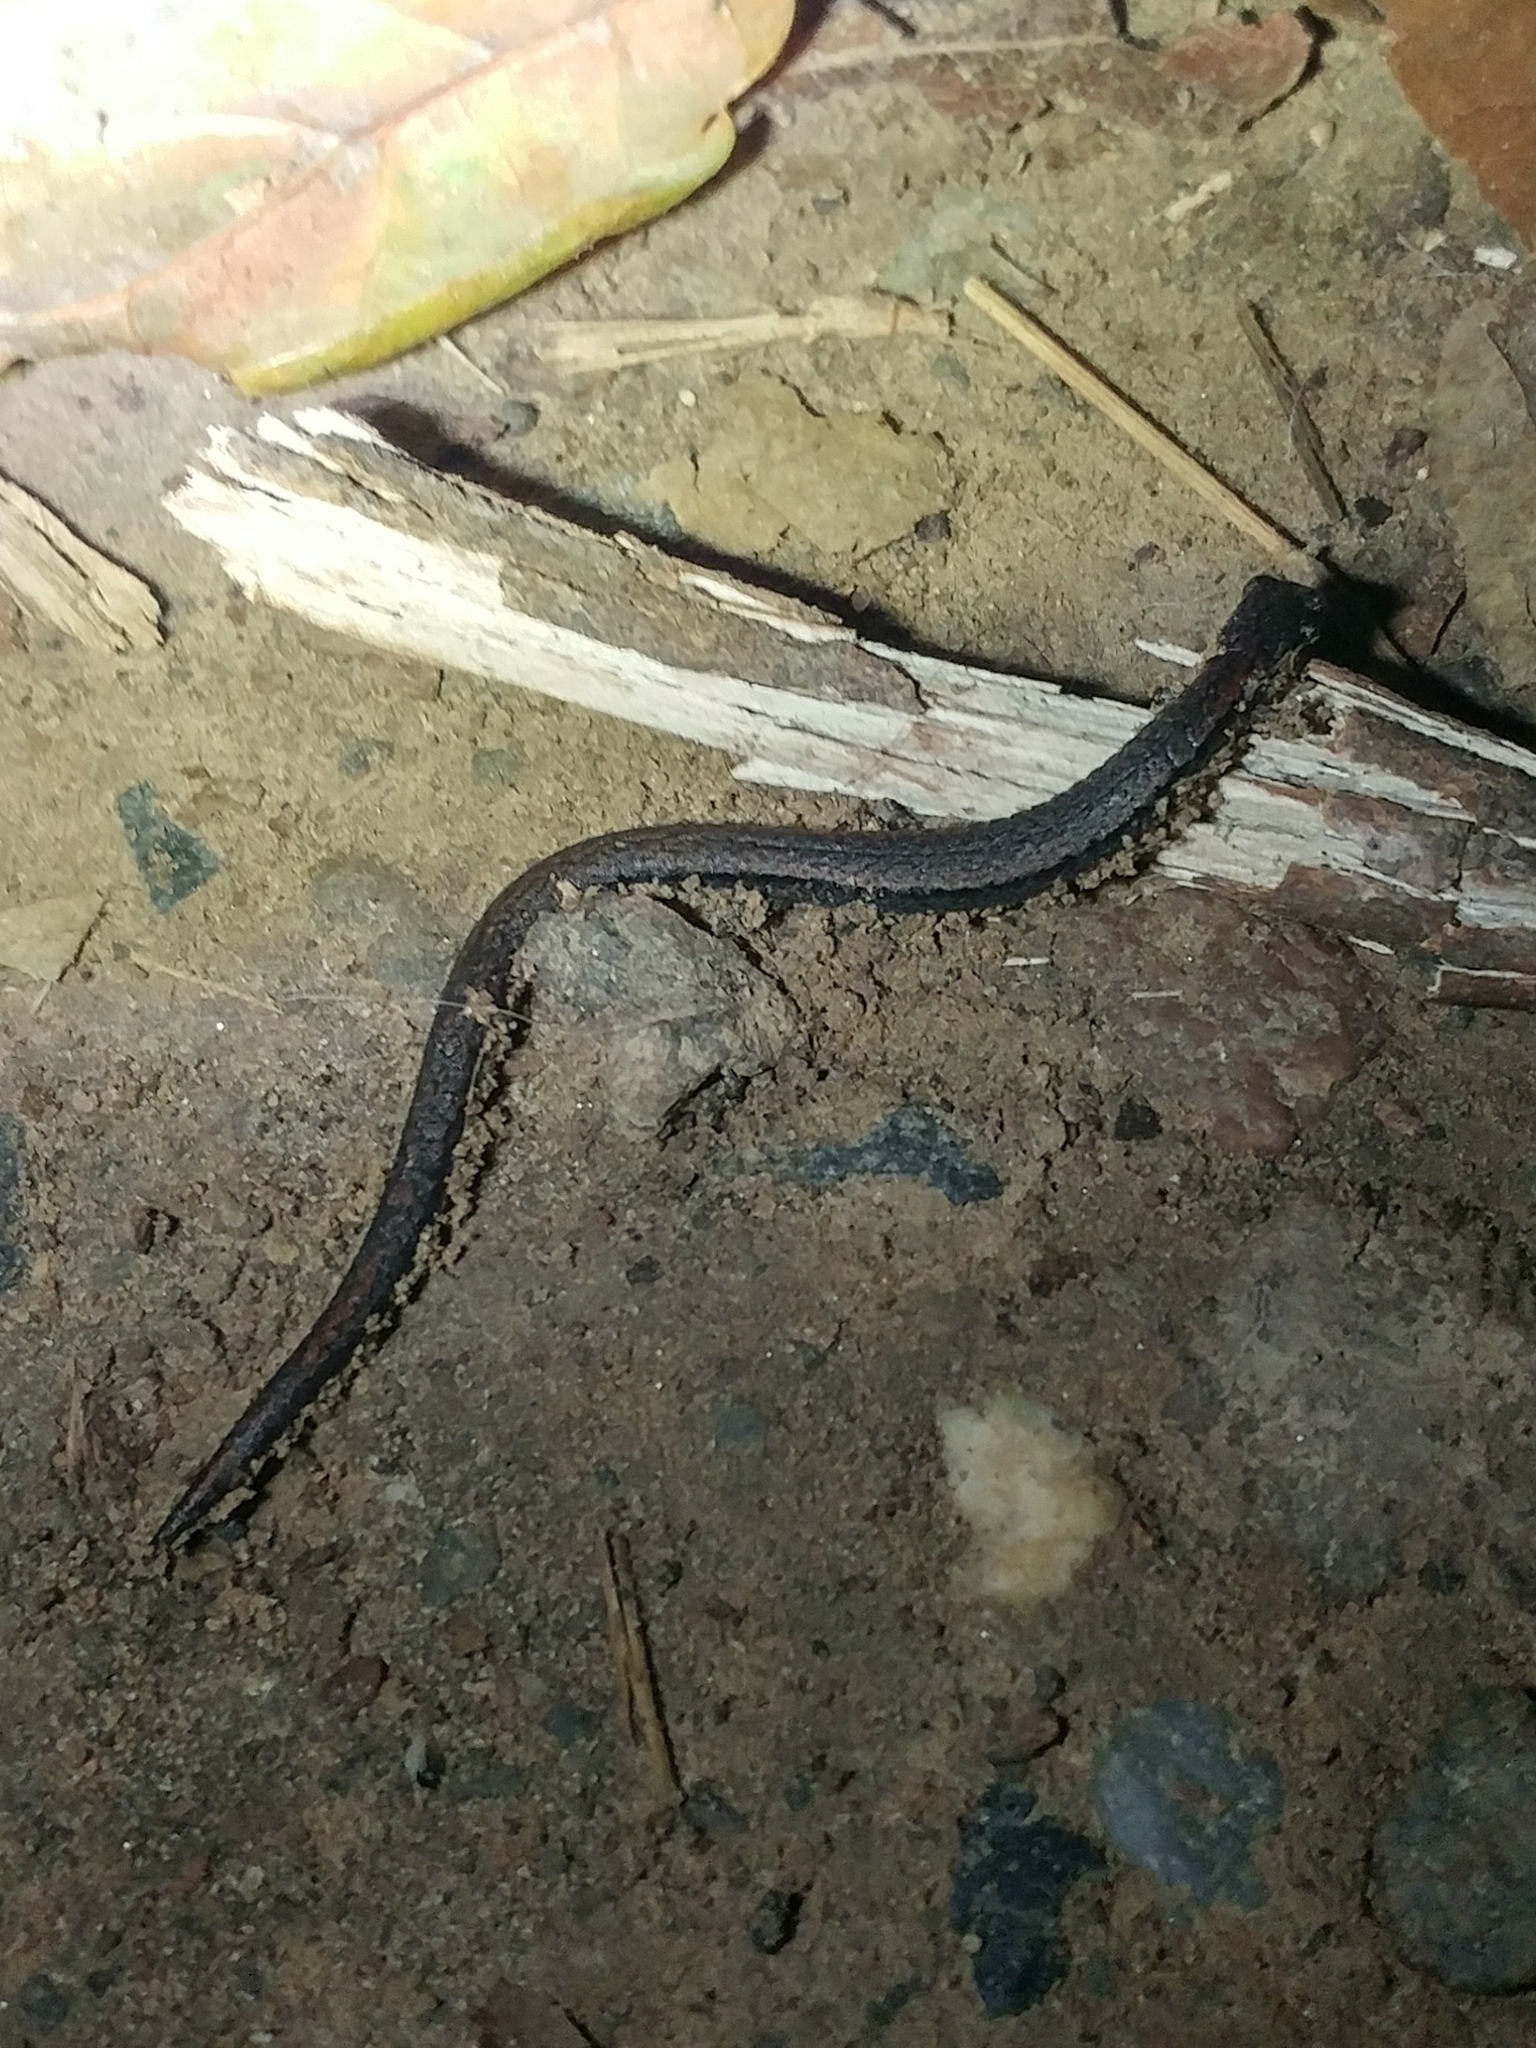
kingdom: Animalia
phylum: Chordata
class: Amphibia
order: Caudata
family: Plethodontidae
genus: Batrachoseps
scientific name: Batrachoseps nigriventris
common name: Black-bellied slender salamander
